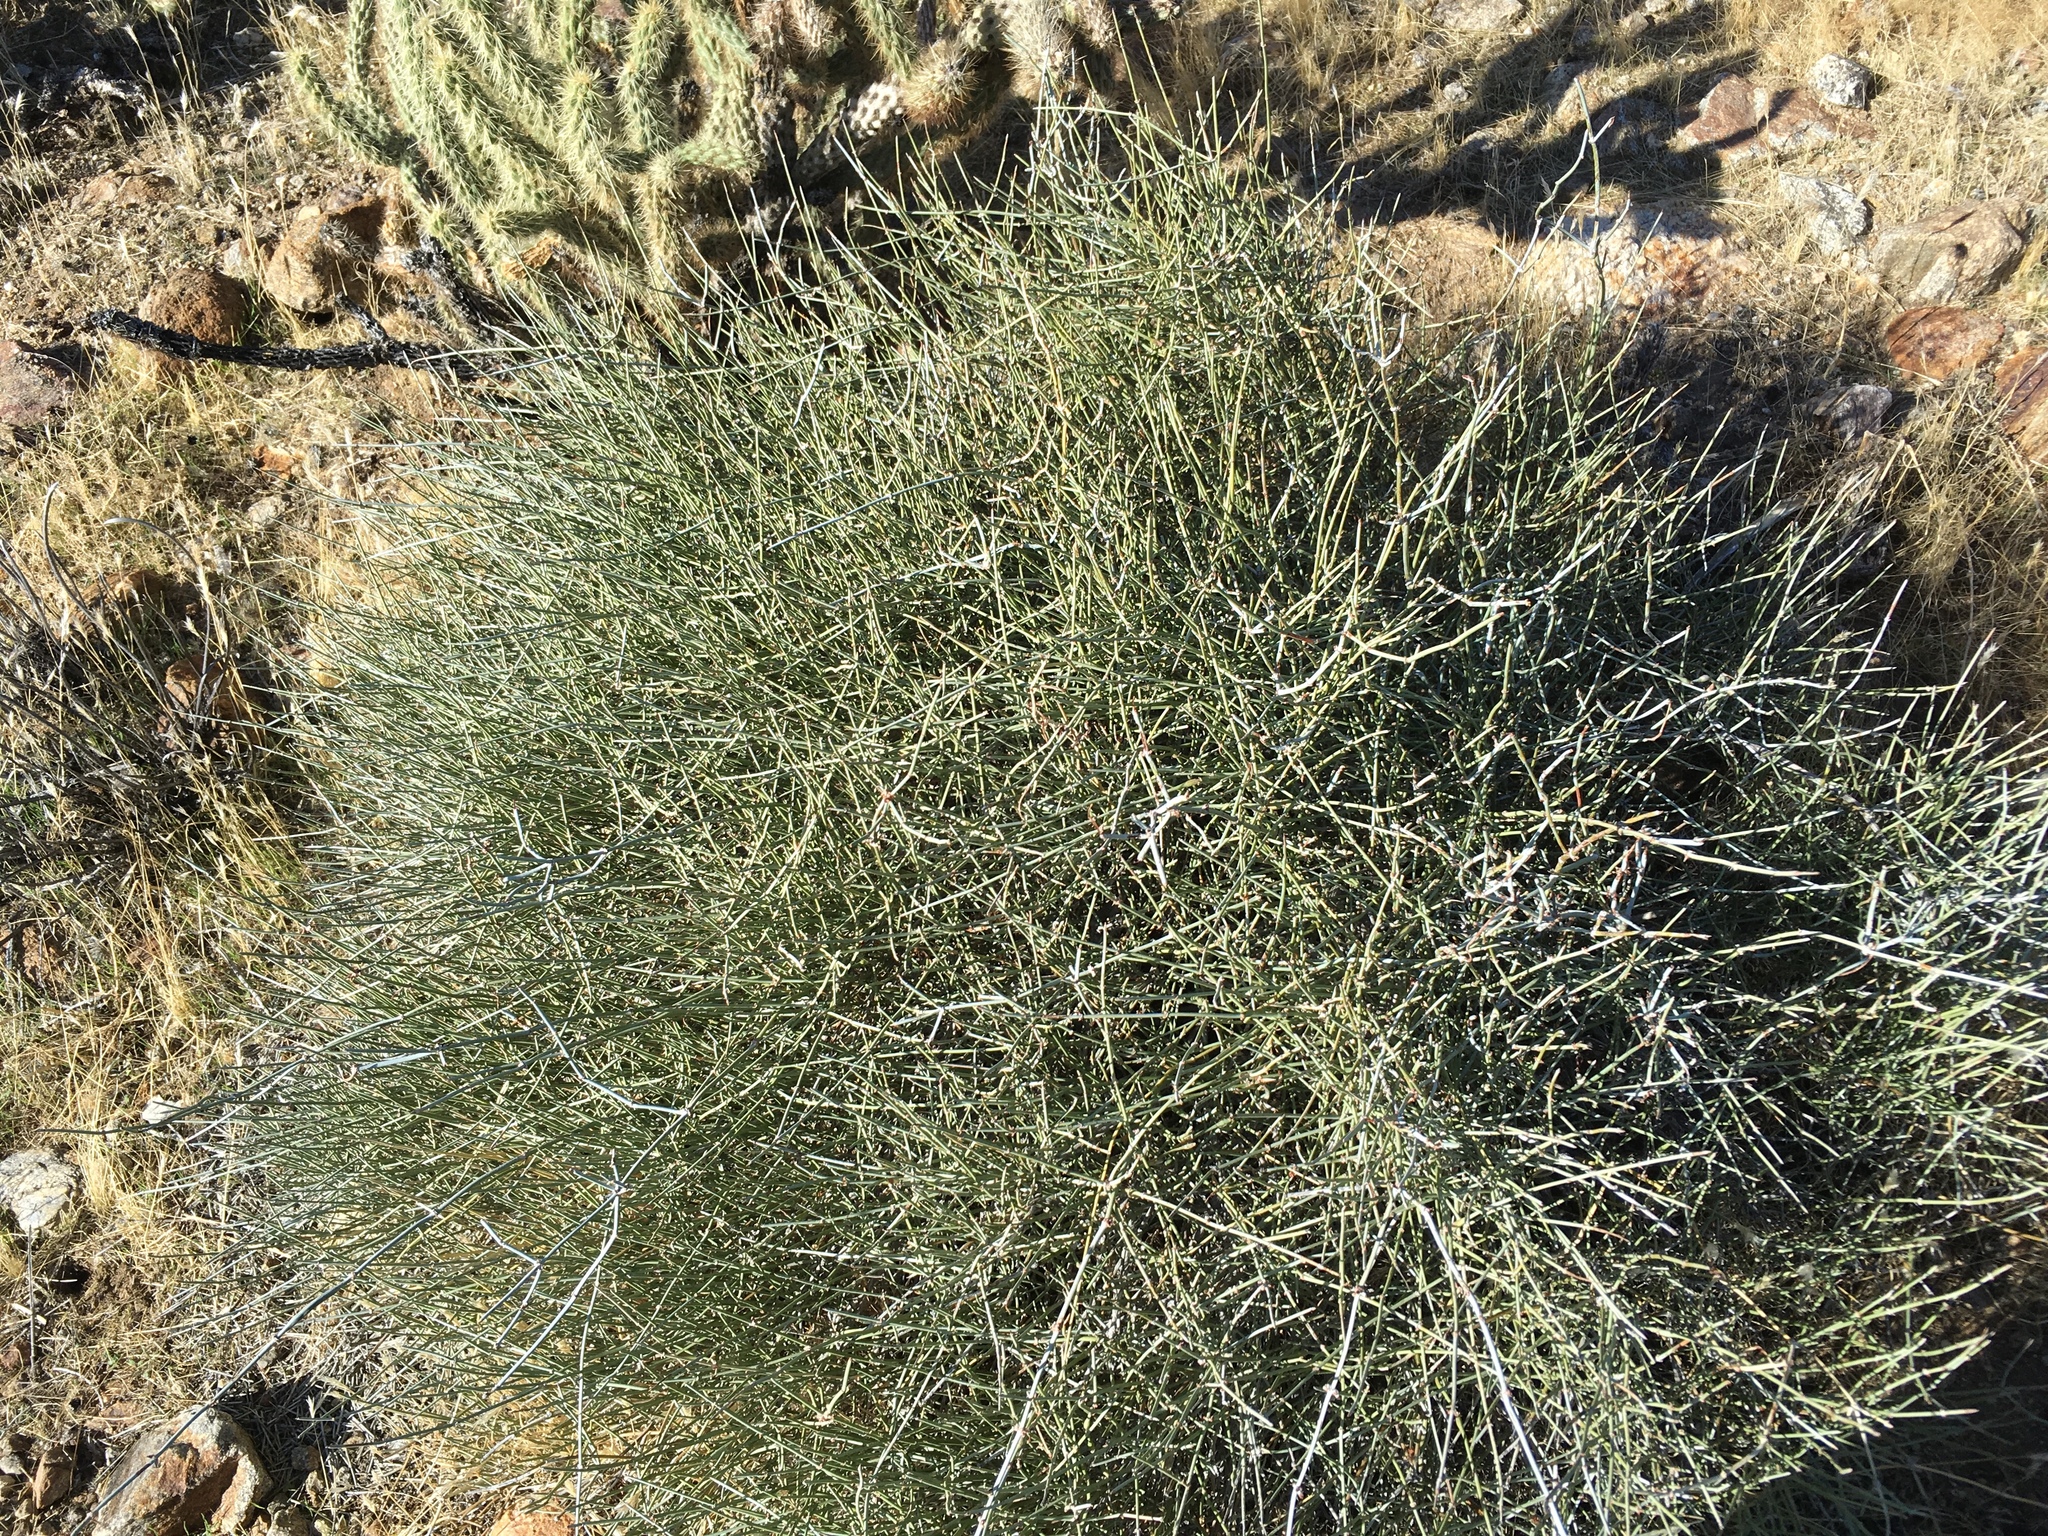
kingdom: Plantae
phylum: Tracheophyta
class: Gnetopsida
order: Ephedrales
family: Ephedraceae
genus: Ephedra
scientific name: Ephedra aspera
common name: Boundary ephedra
